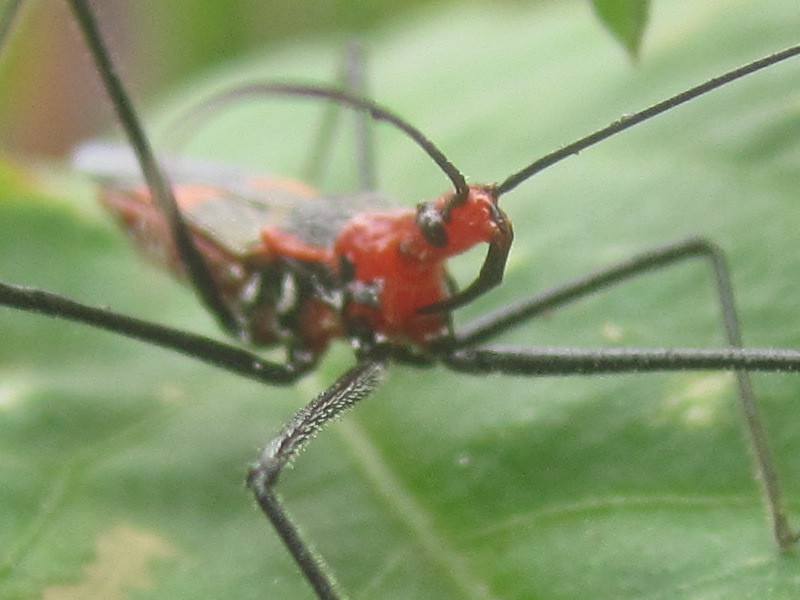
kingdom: Animalia
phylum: Arthropoda
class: Insecta
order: Hemiptera
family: Reduviidae
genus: Zelus
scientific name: Zelus longipes
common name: Milkweed assassin bug
